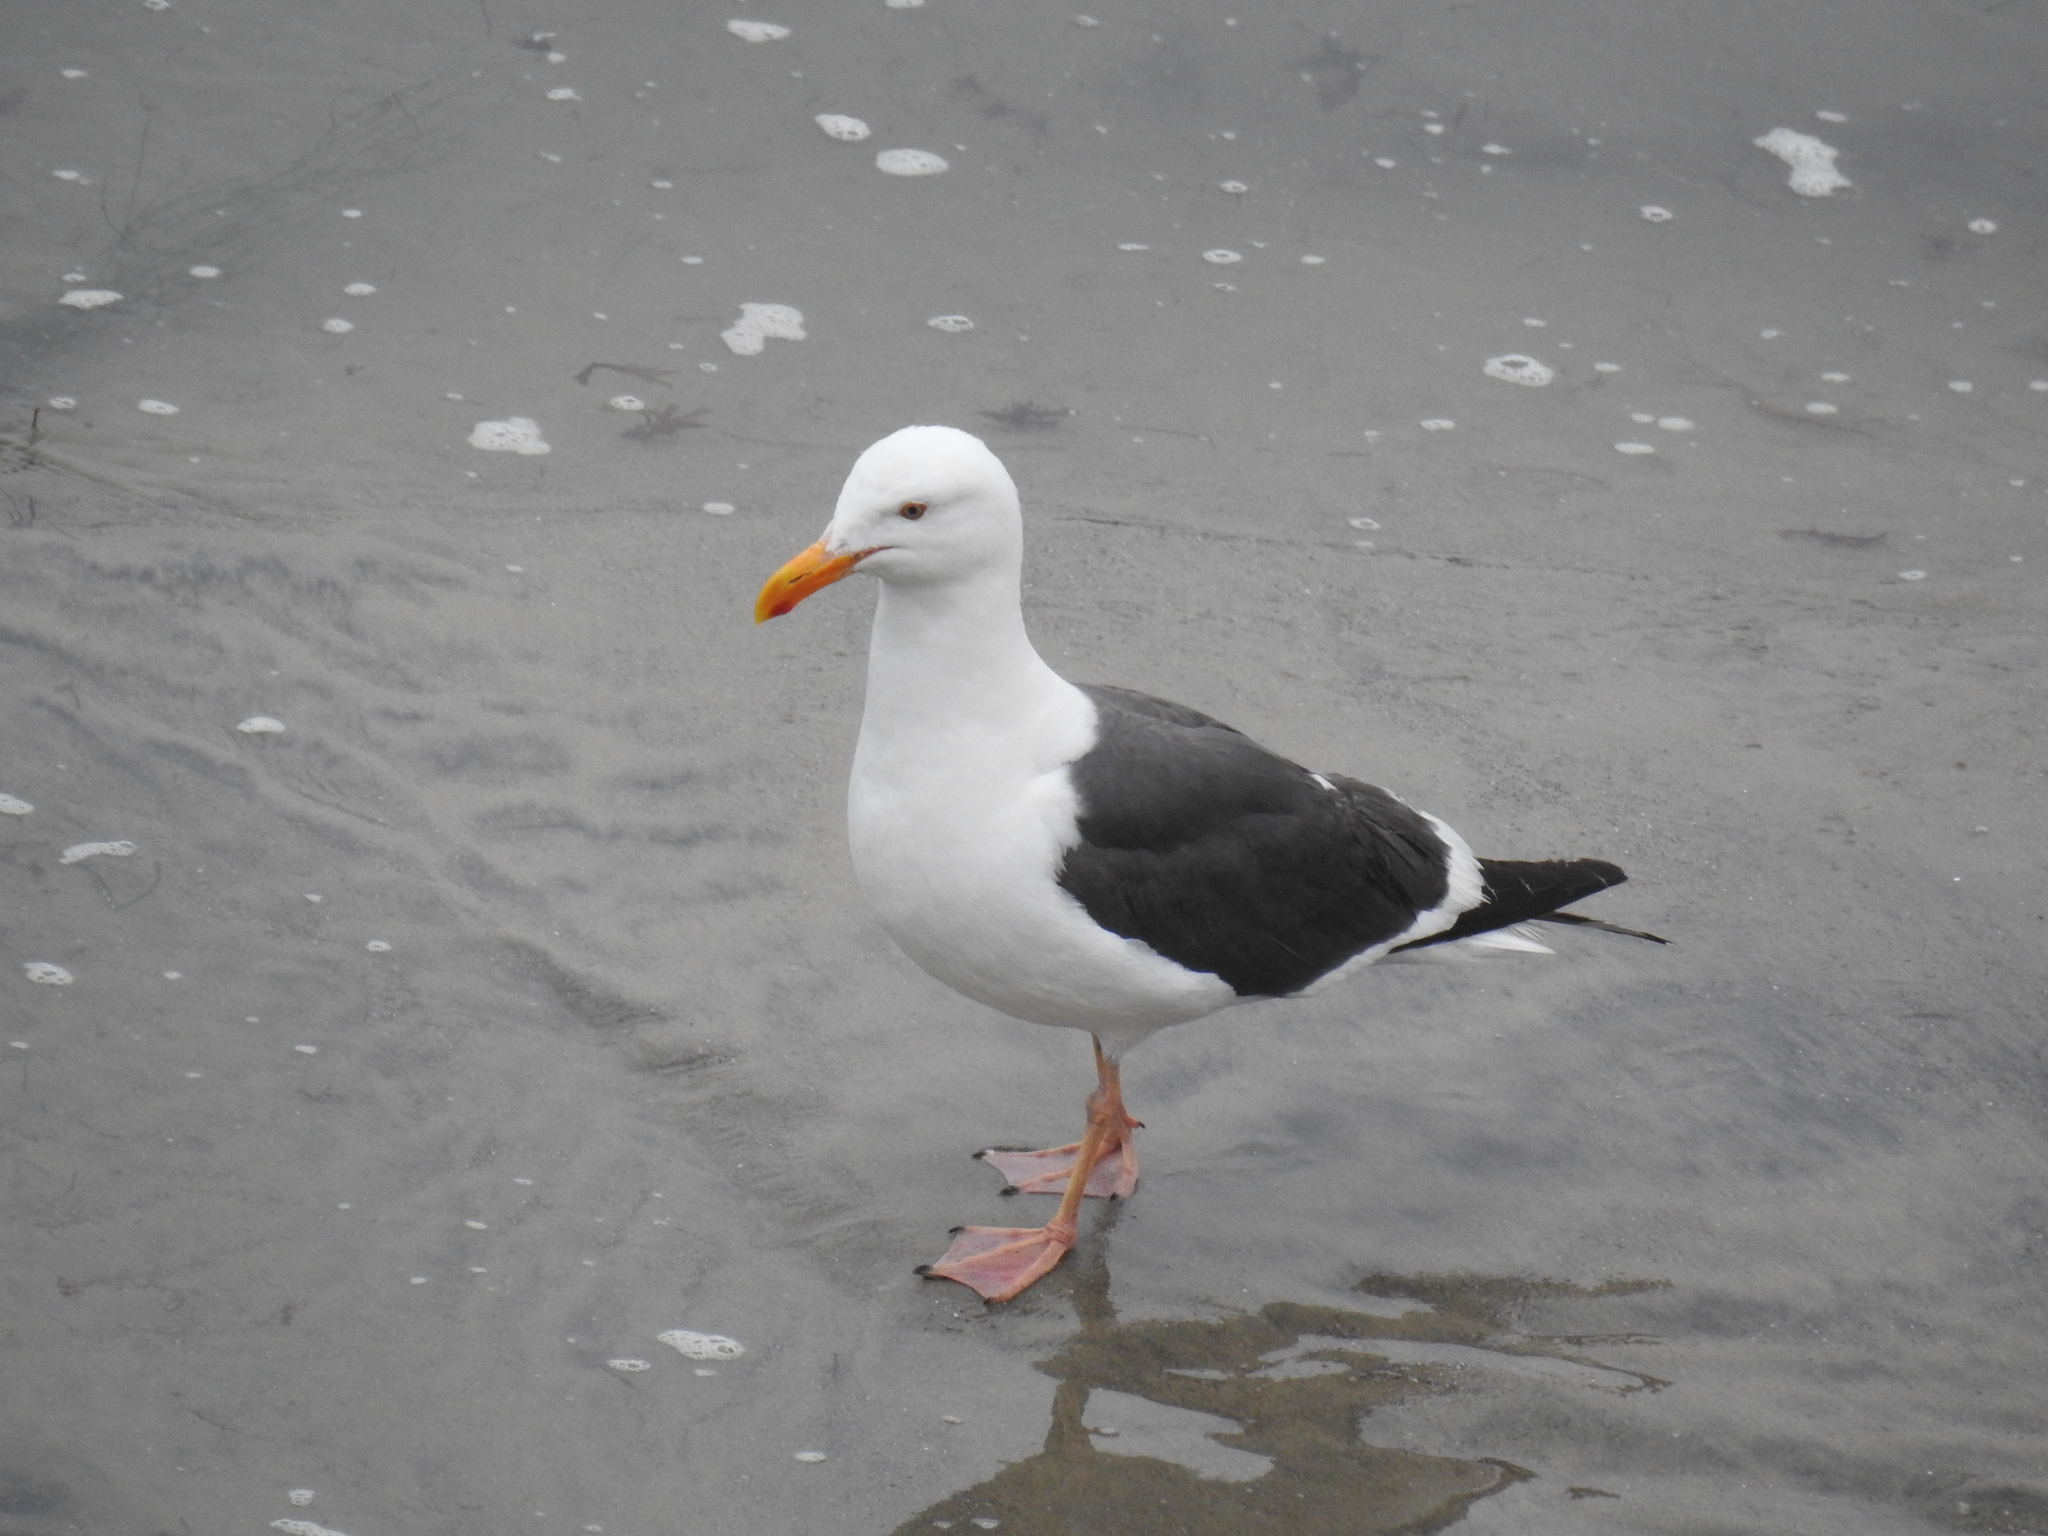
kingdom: Animalia
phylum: Chordata
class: Aves
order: Charadriiformes
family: Laridae
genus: Larus
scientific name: Larus occidentalis
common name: Western gull
